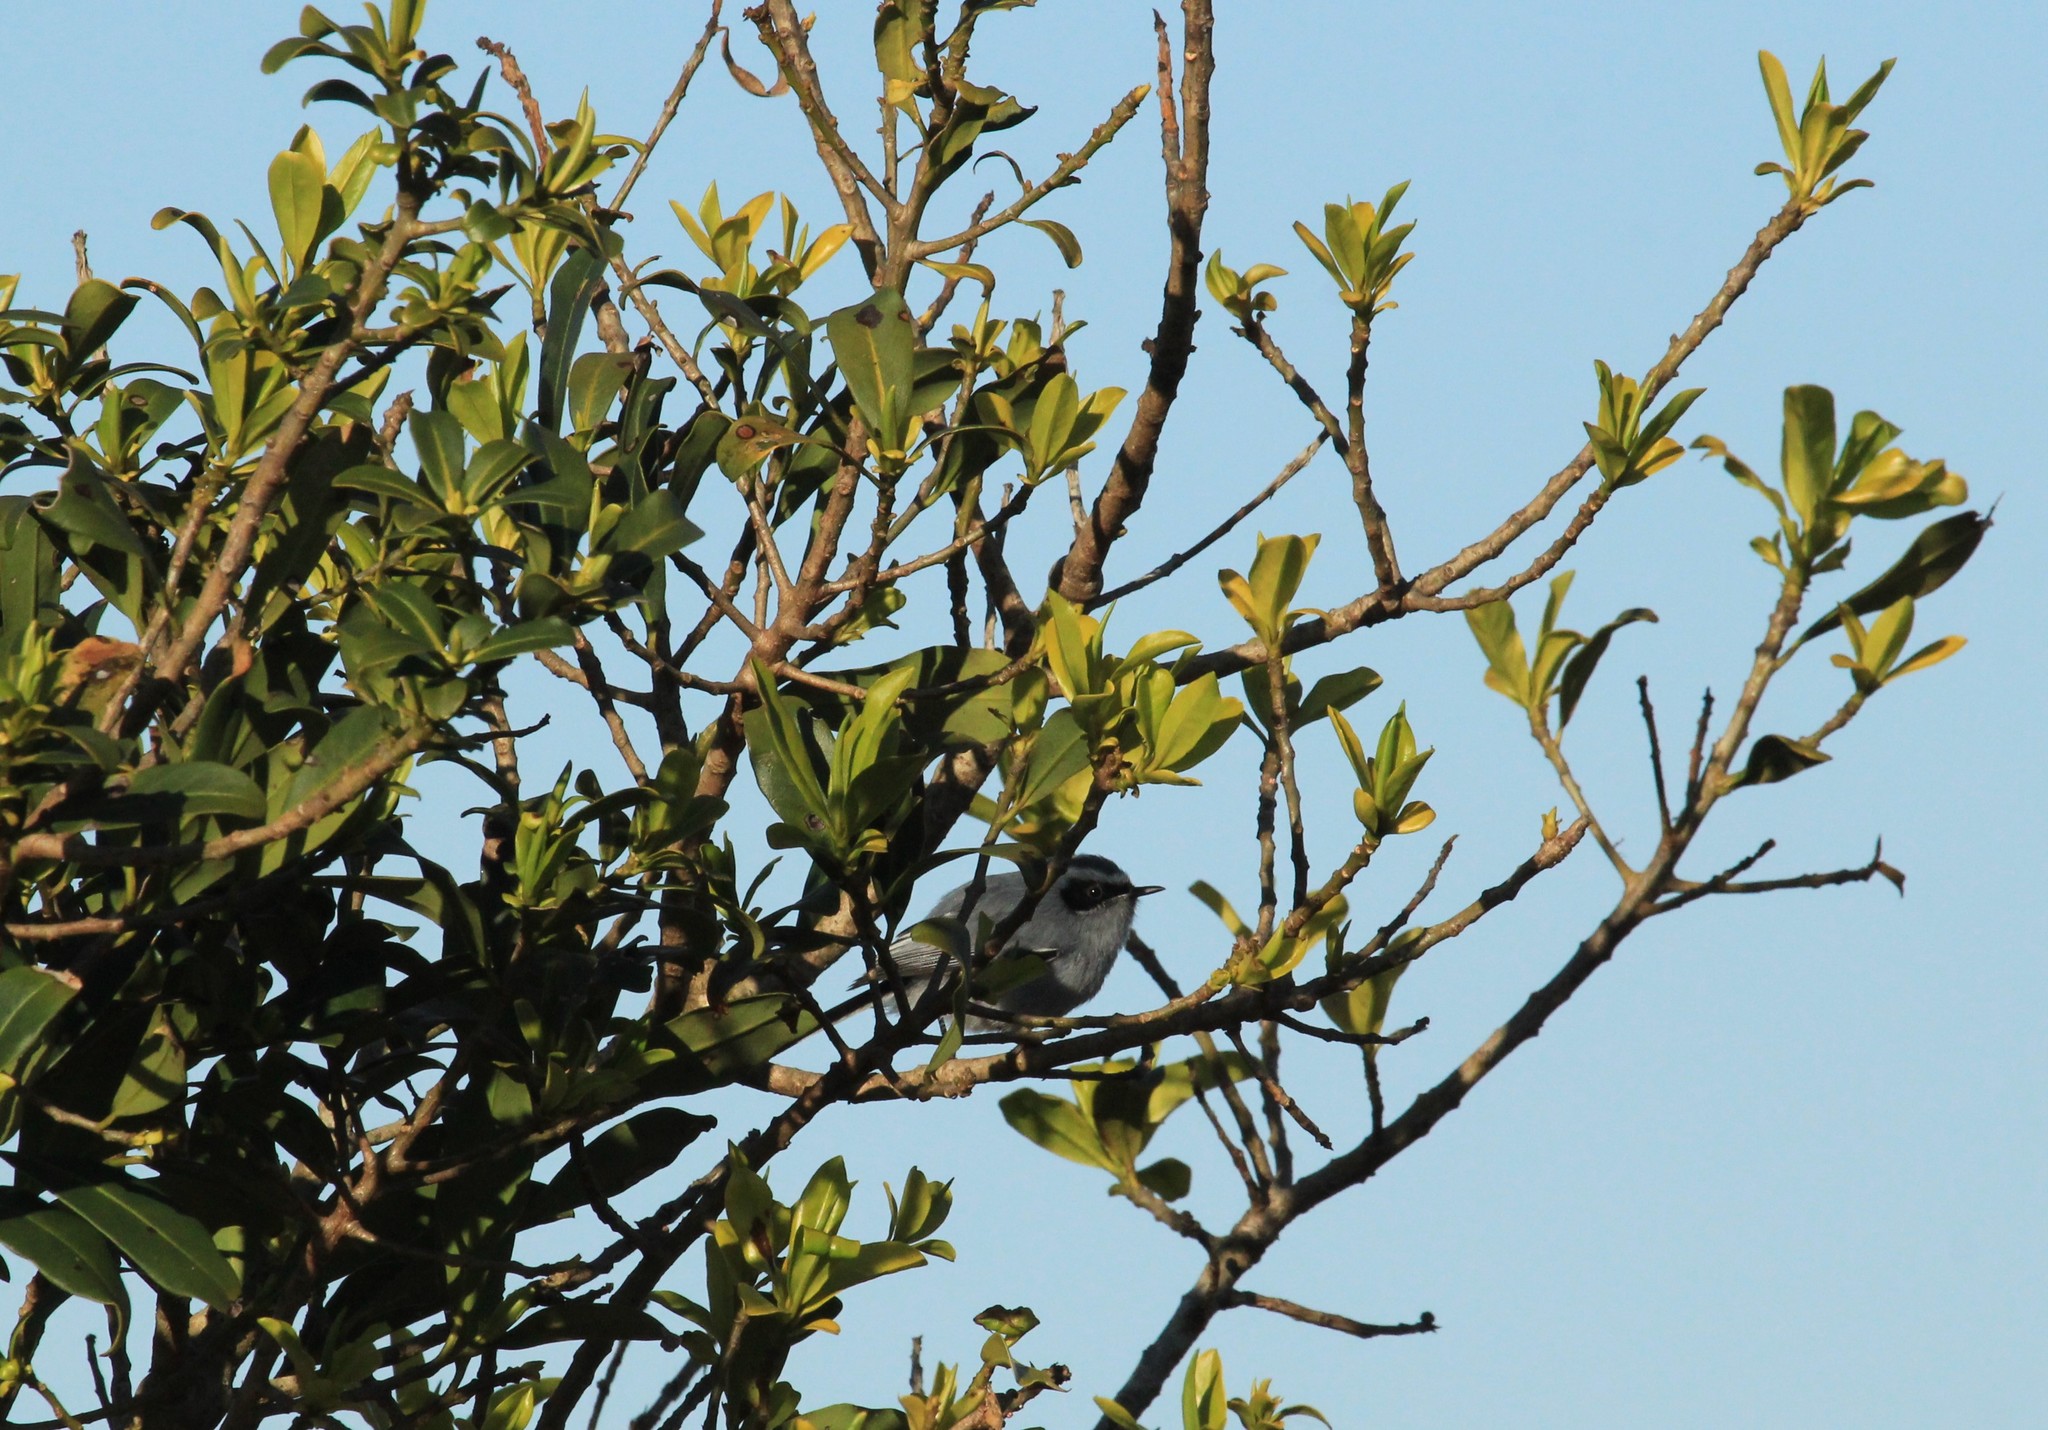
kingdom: Animalia
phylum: Chordata
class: Aves
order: Passeriformes
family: Polioptilidae
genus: Polioptila
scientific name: Polioptila dumicola
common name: Masked gnatcatcher
